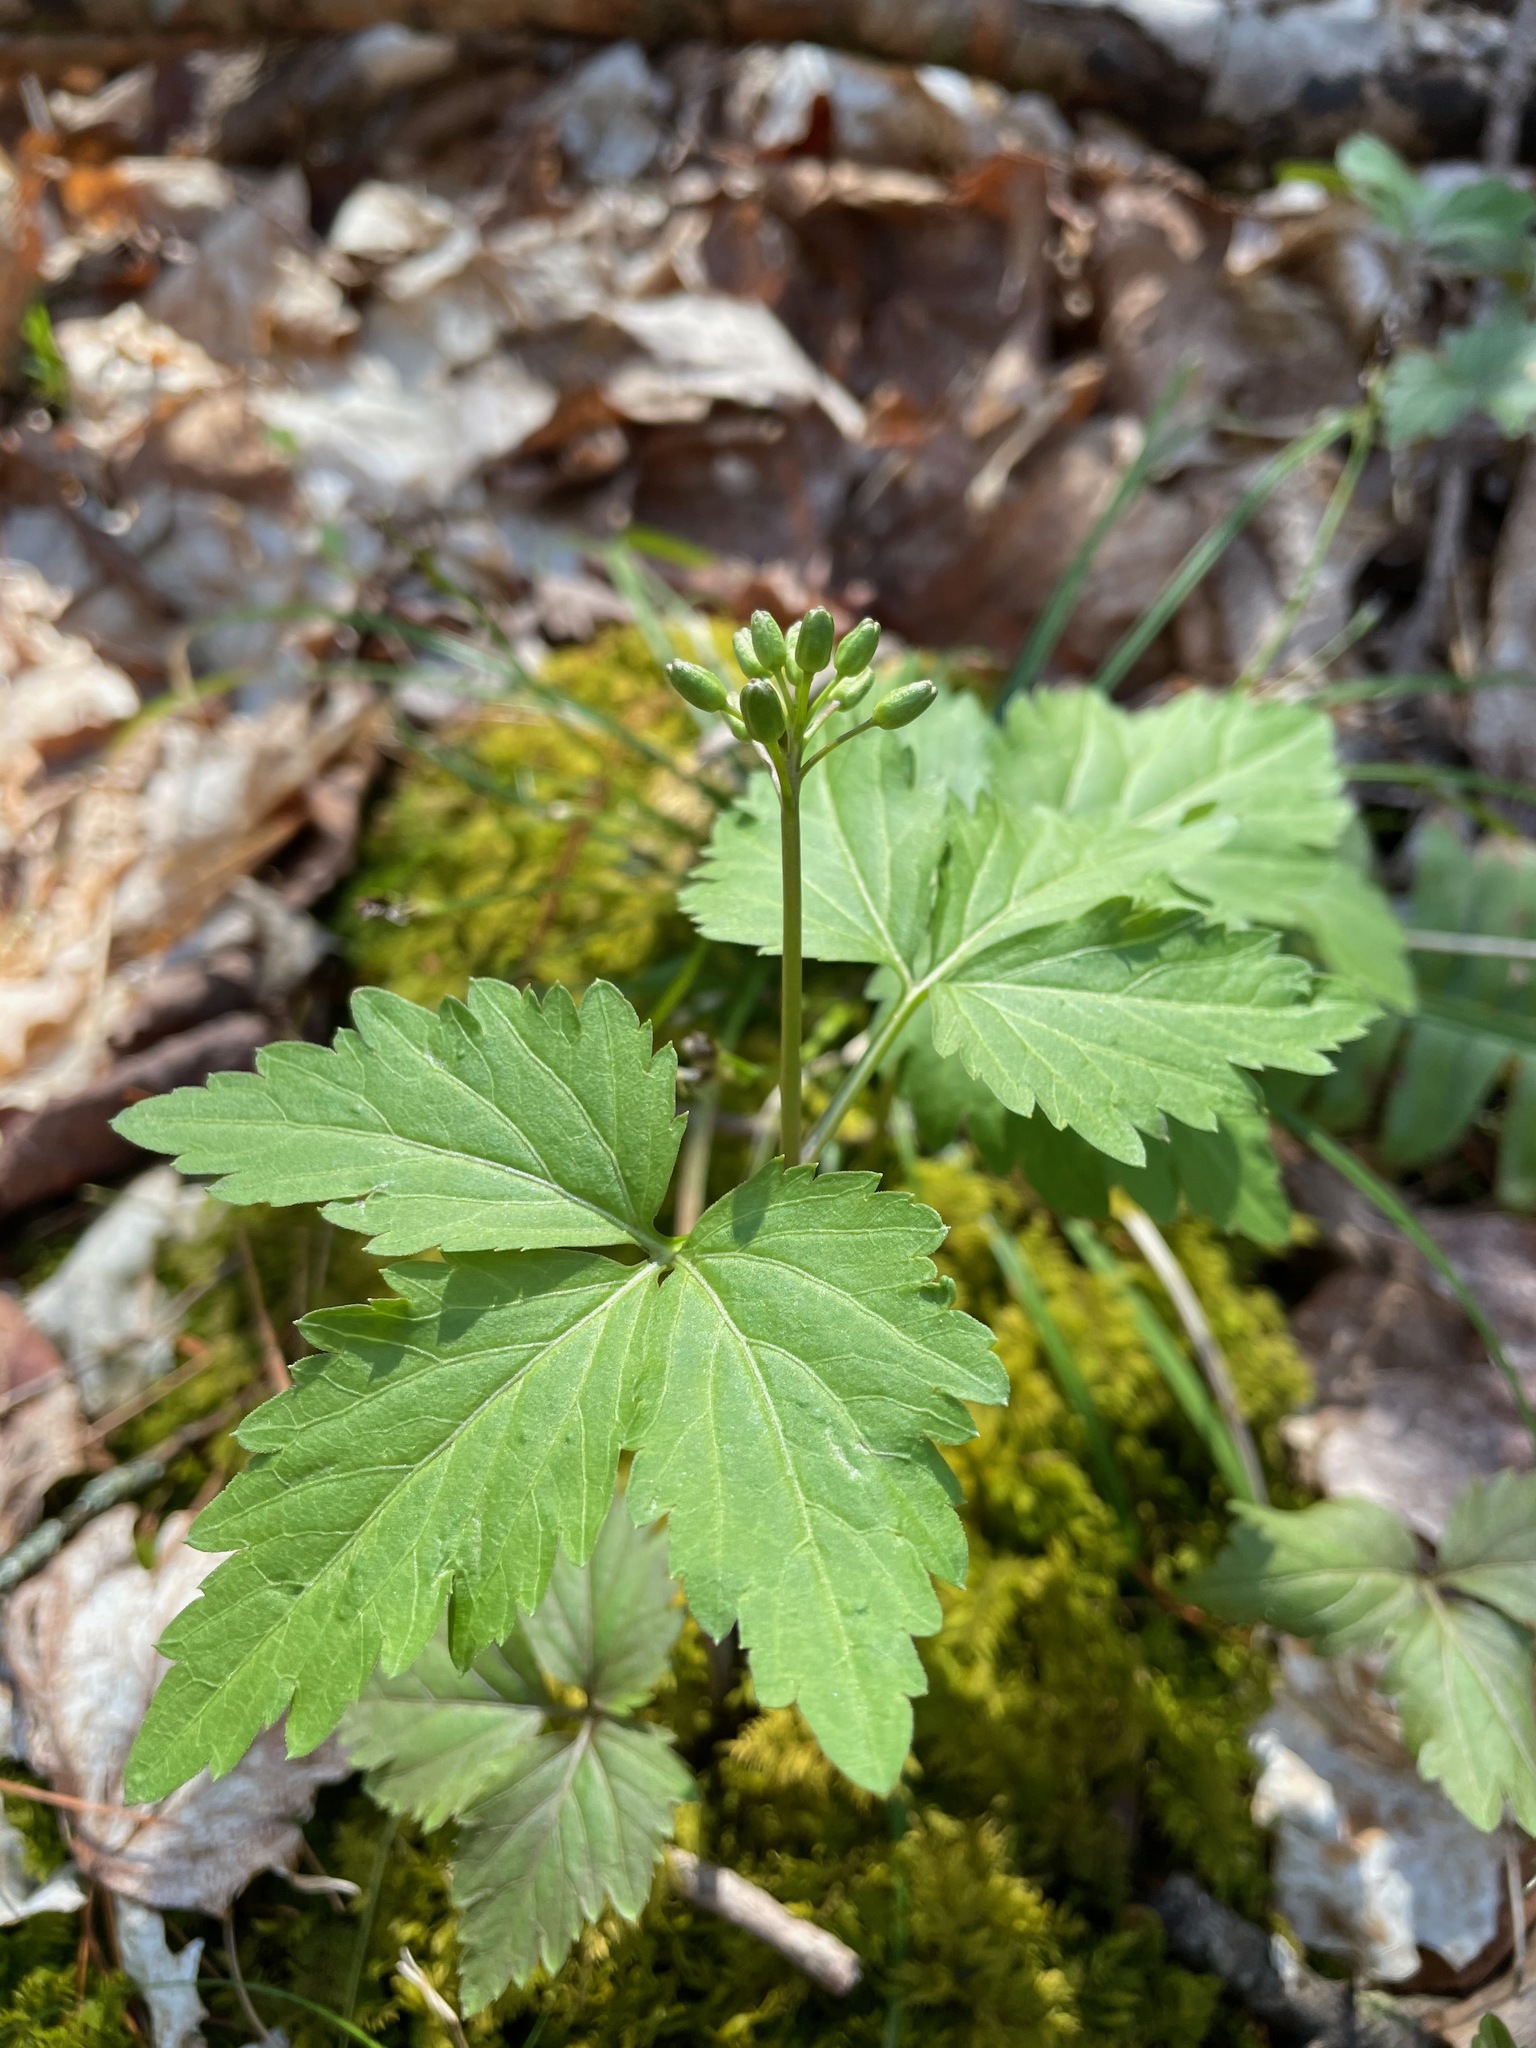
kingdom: Plantae
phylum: Tracheophyta
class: Magnoliopsida
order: Brassicales
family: Brassicaceae
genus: Cardamine
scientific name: Cardamine diphylla
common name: Broad-leaved toothwort
